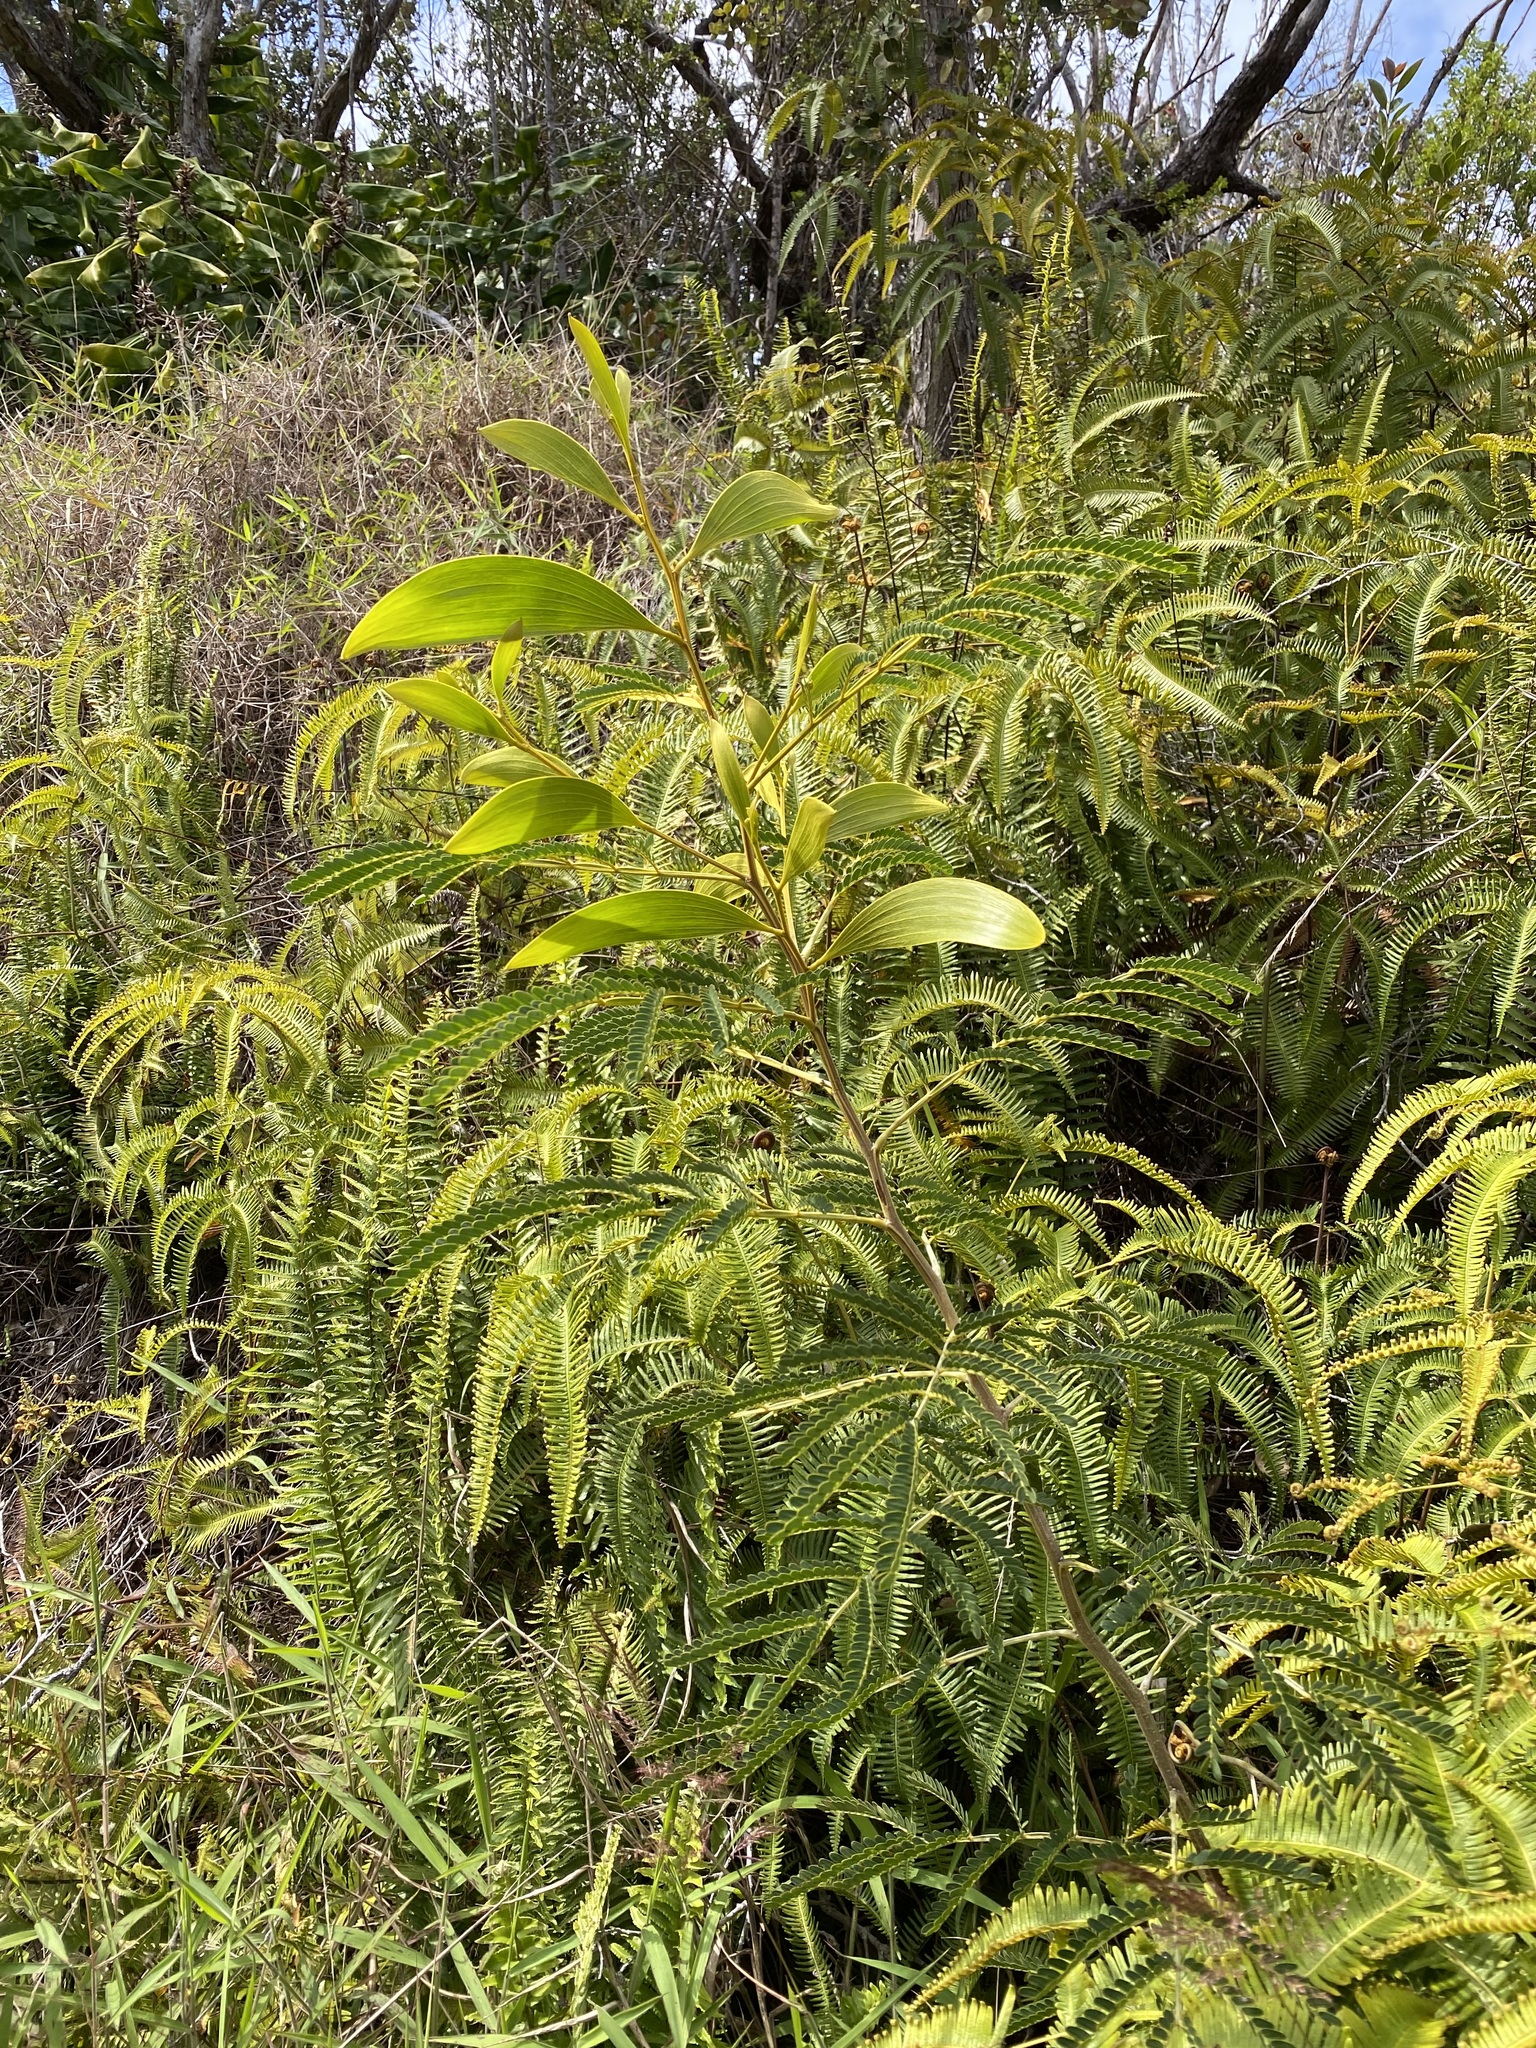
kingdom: Plantae
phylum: Tracheophyta
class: Magnoliopsida
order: Fabales
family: Fabaceae
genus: Acacia
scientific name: Acacia koa
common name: Gray koa
